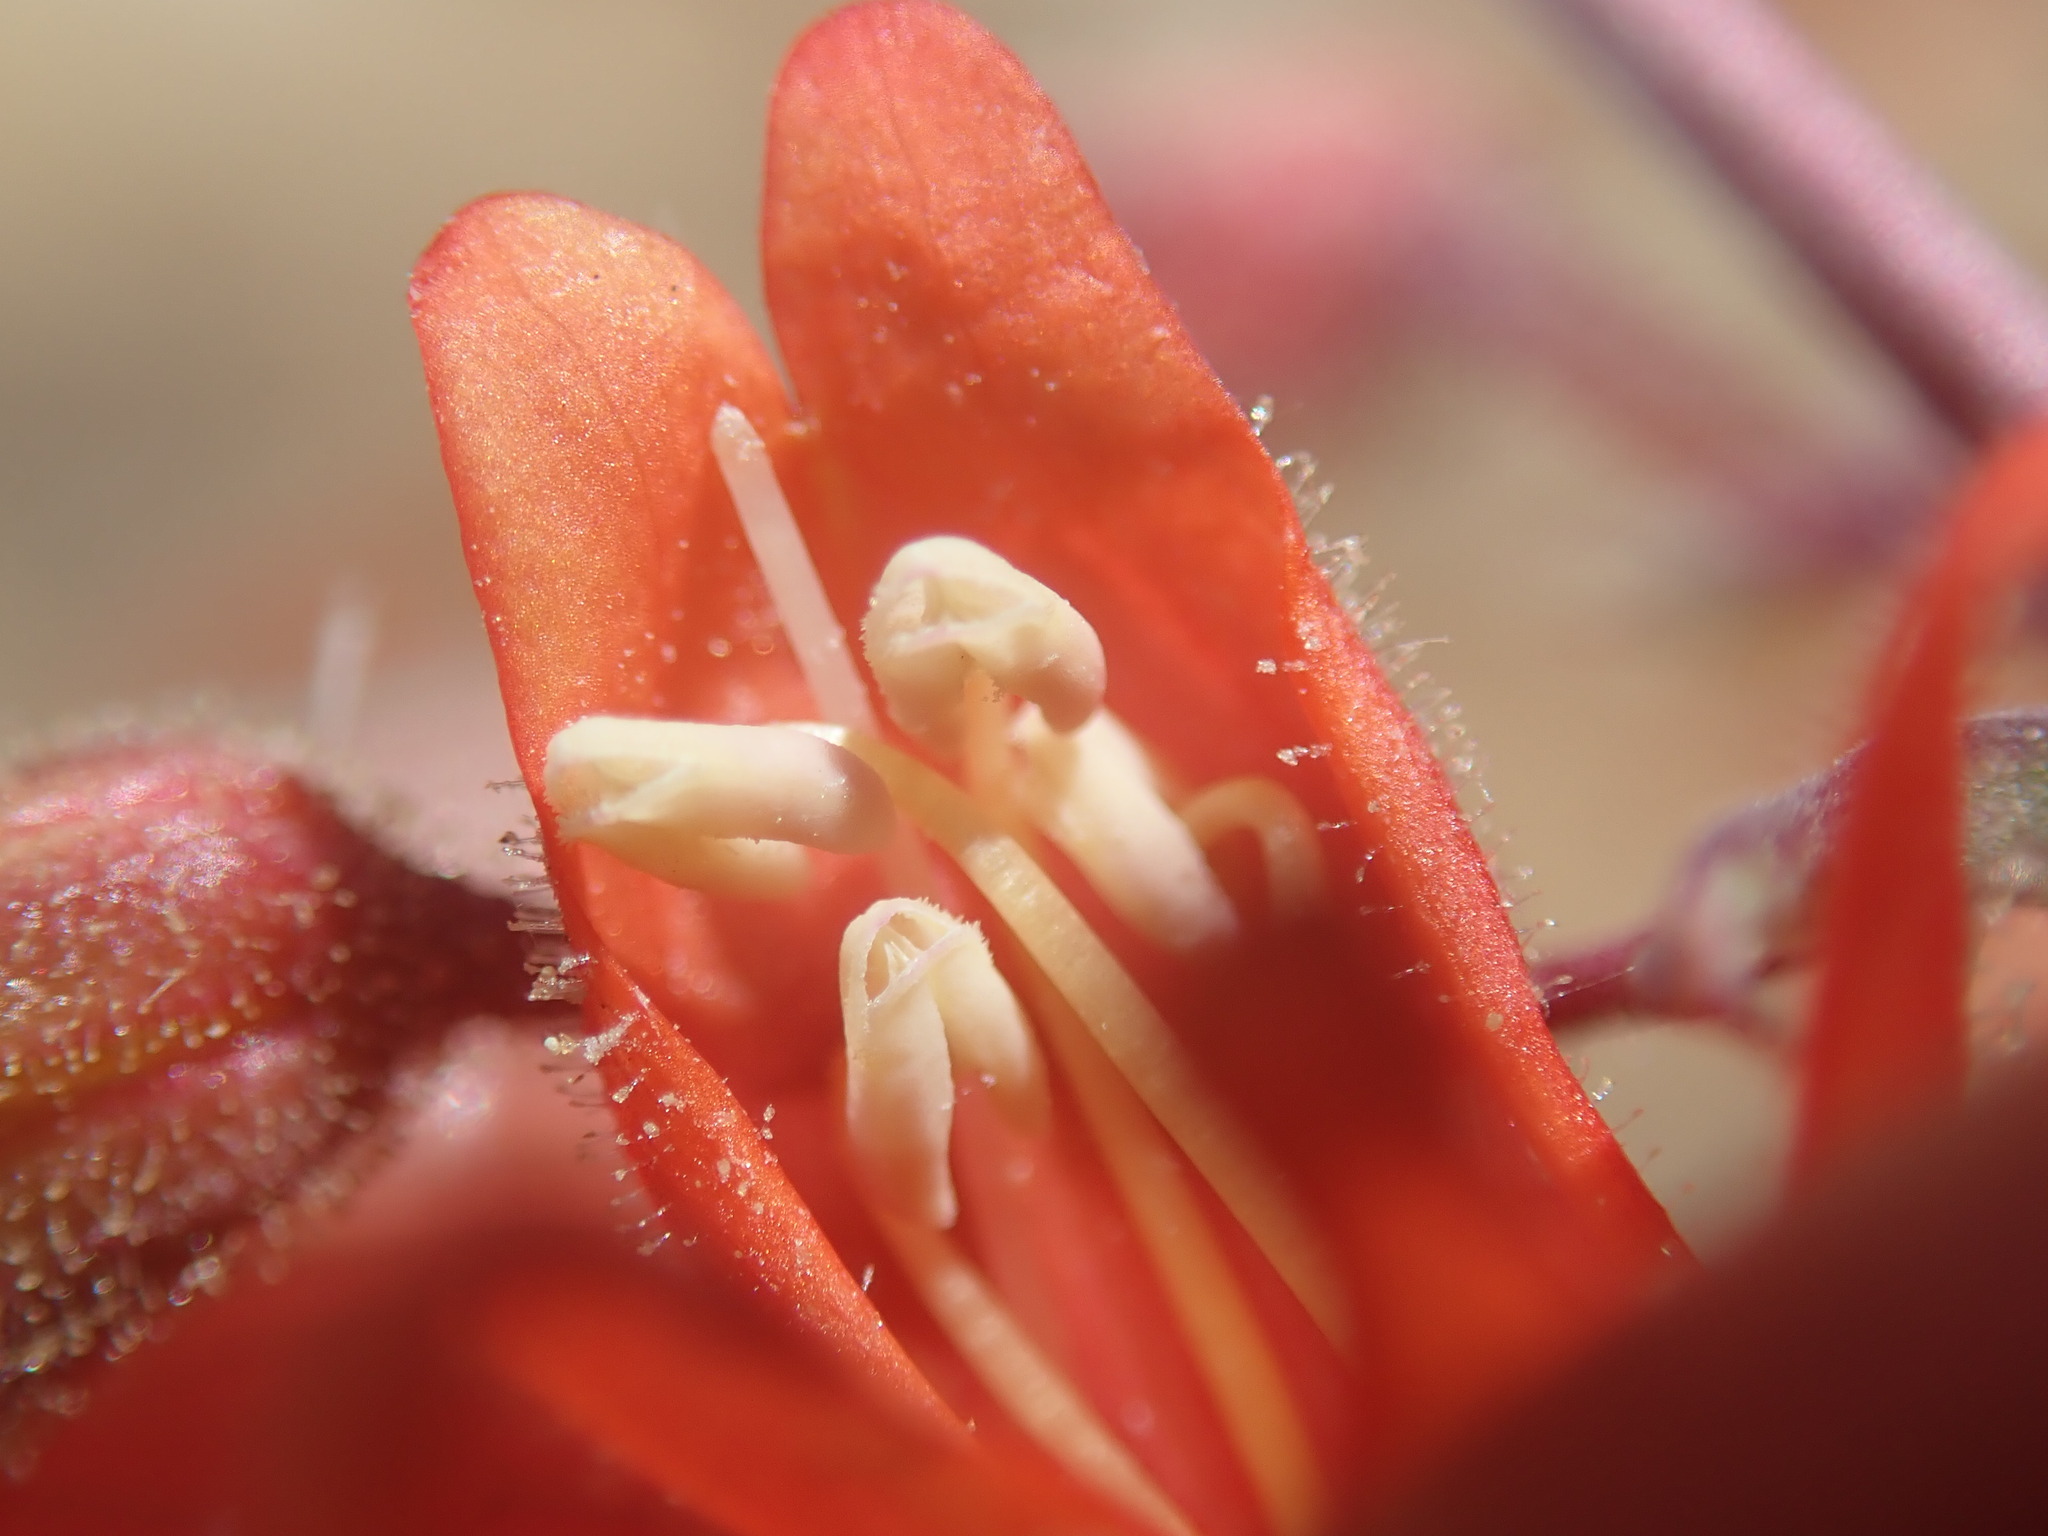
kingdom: Plantae
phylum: Tracheophyta
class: Magnoliopsida
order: Lamiales
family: Plantaginaceae
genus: Penstemon
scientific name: Penstemon rostriflorus
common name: Bridges's penstemon
